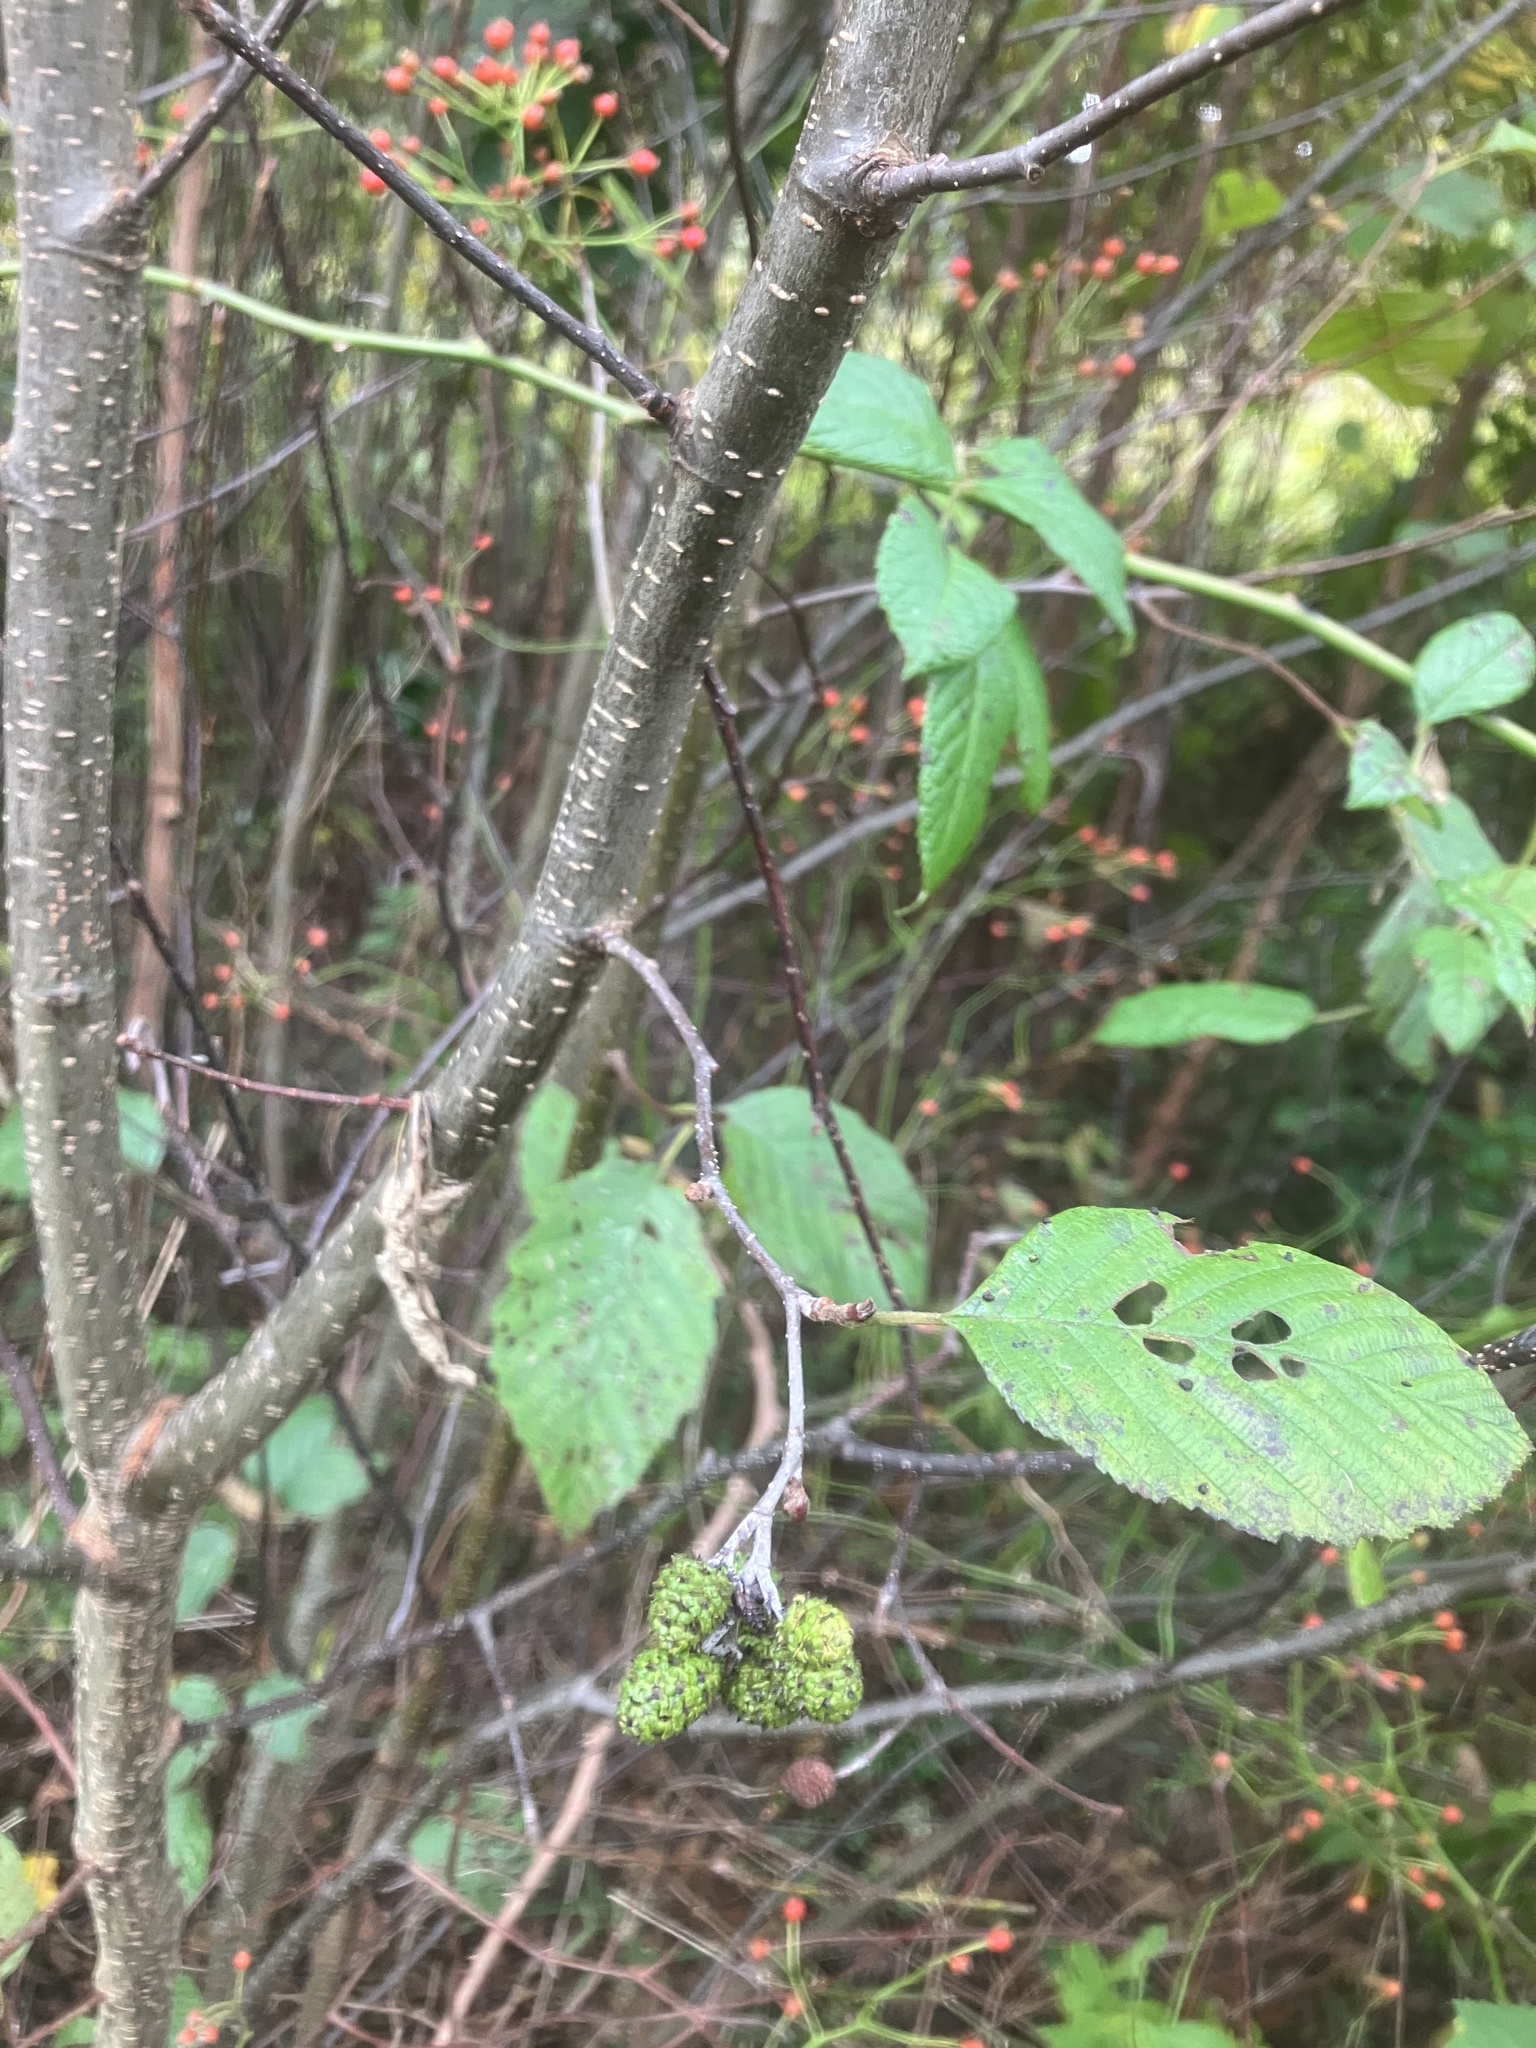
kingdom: Plantae
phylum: Tracheophyta
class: Magnoliopsida
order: Fagales
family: Betulaceae
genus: Alnus
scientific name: Alnus incana
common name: Grey alder
